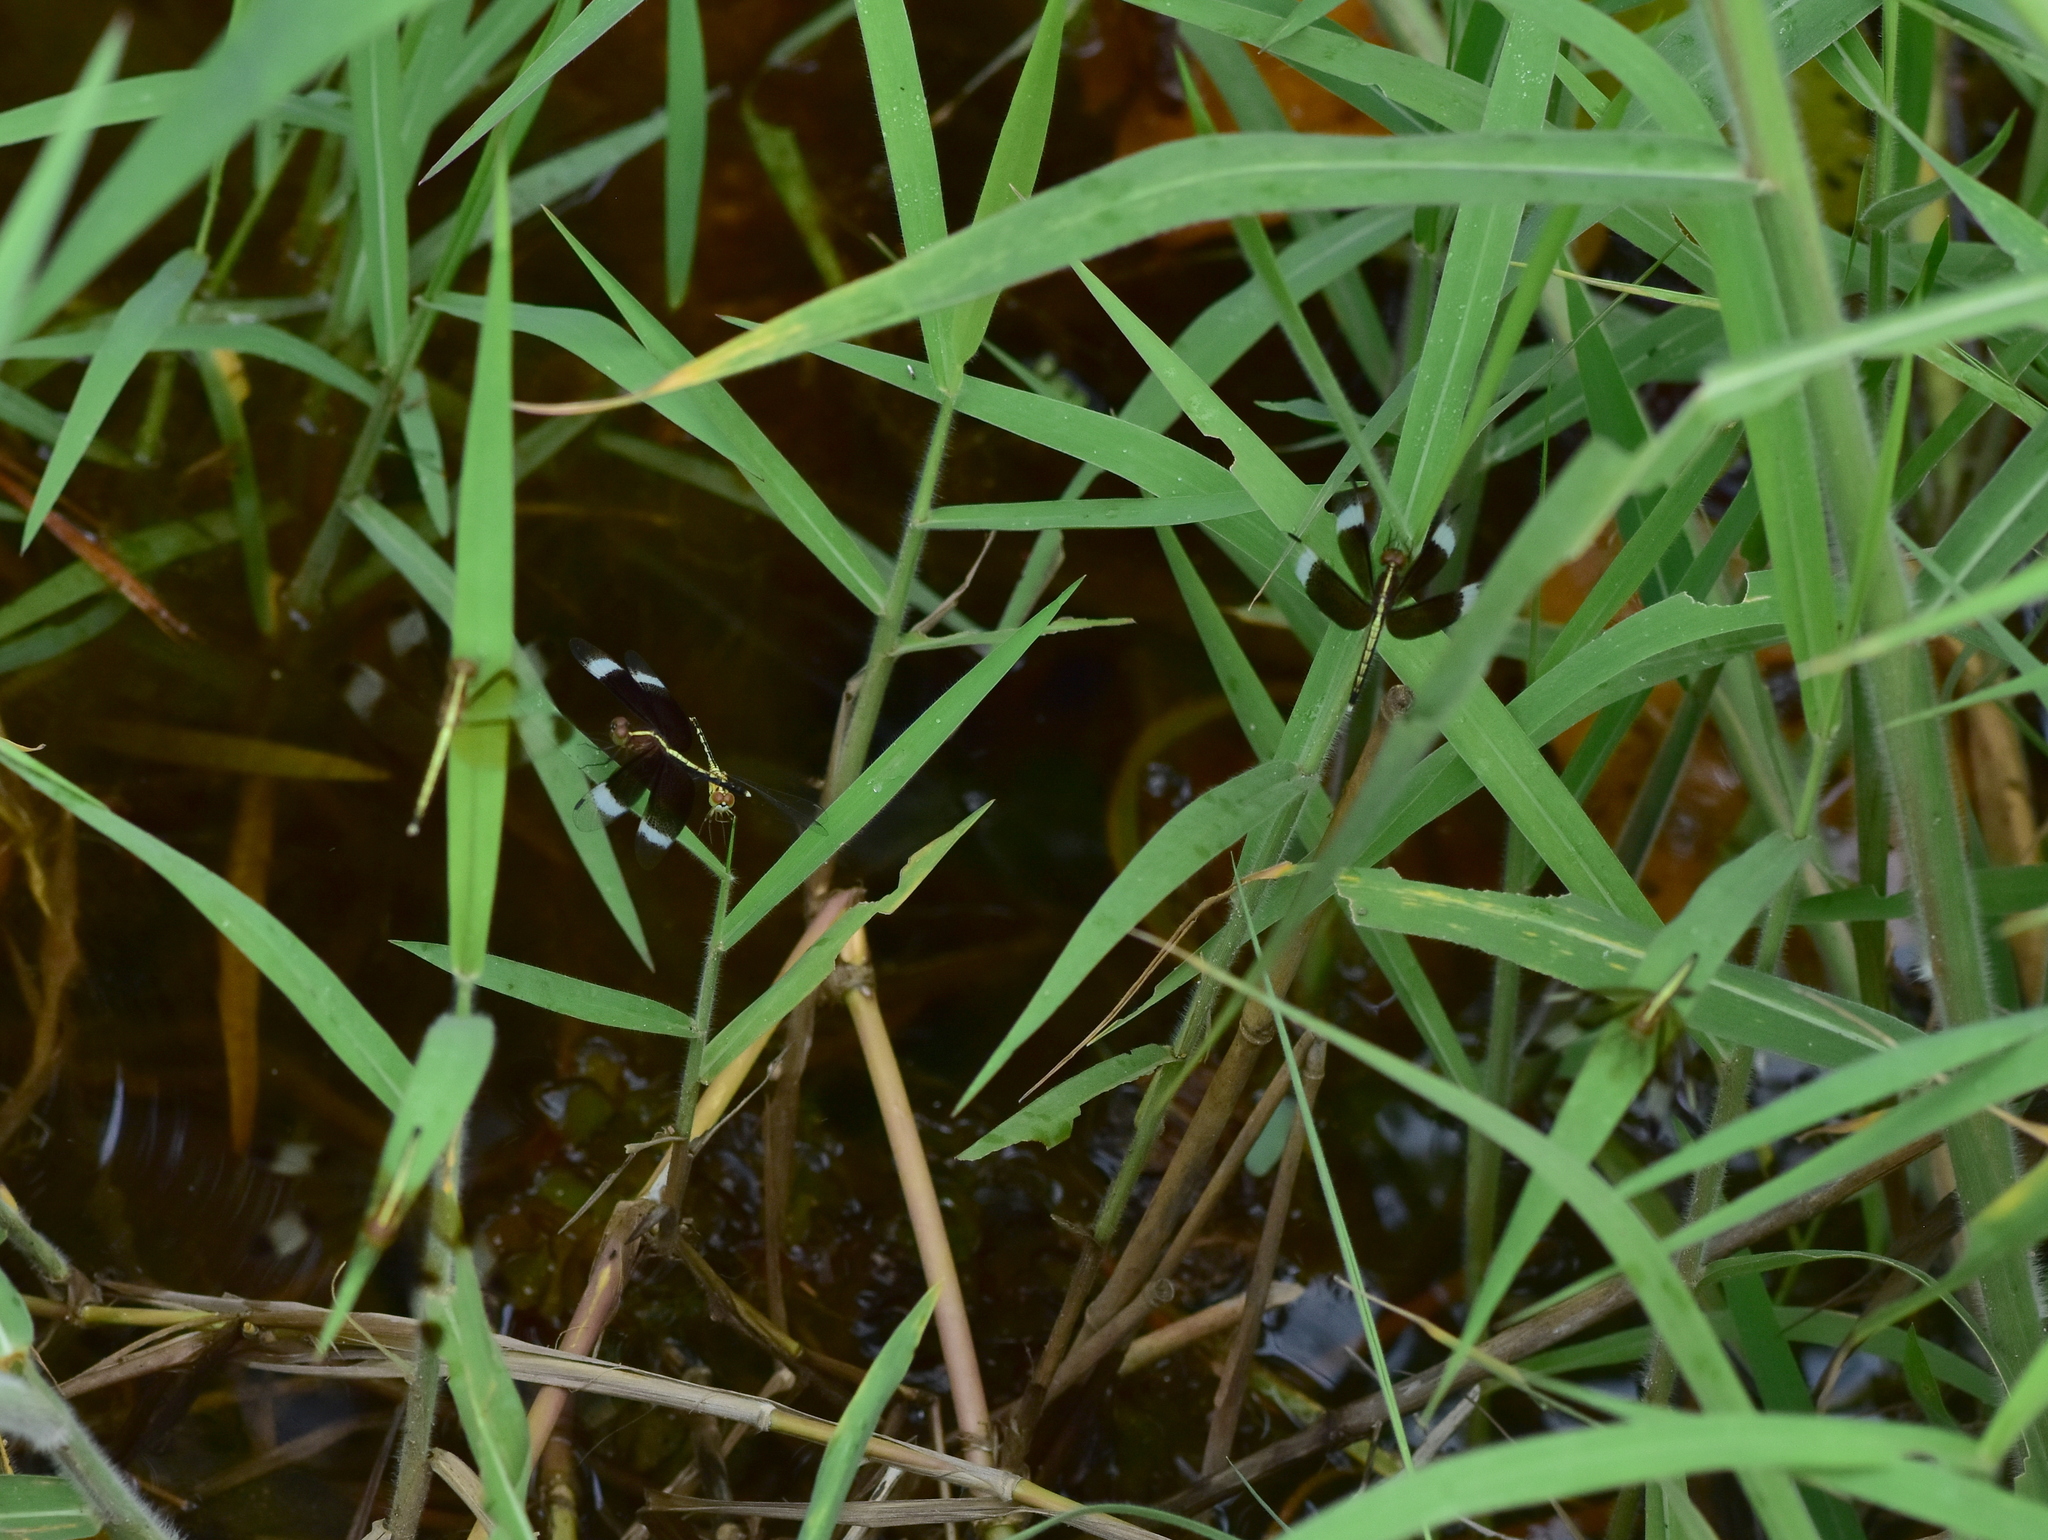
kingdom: Animalia
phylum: Arthropoda
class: Insecta
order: Odonata
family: Libellulidae
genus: Neurothemis
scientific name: Neurothemis tullia
